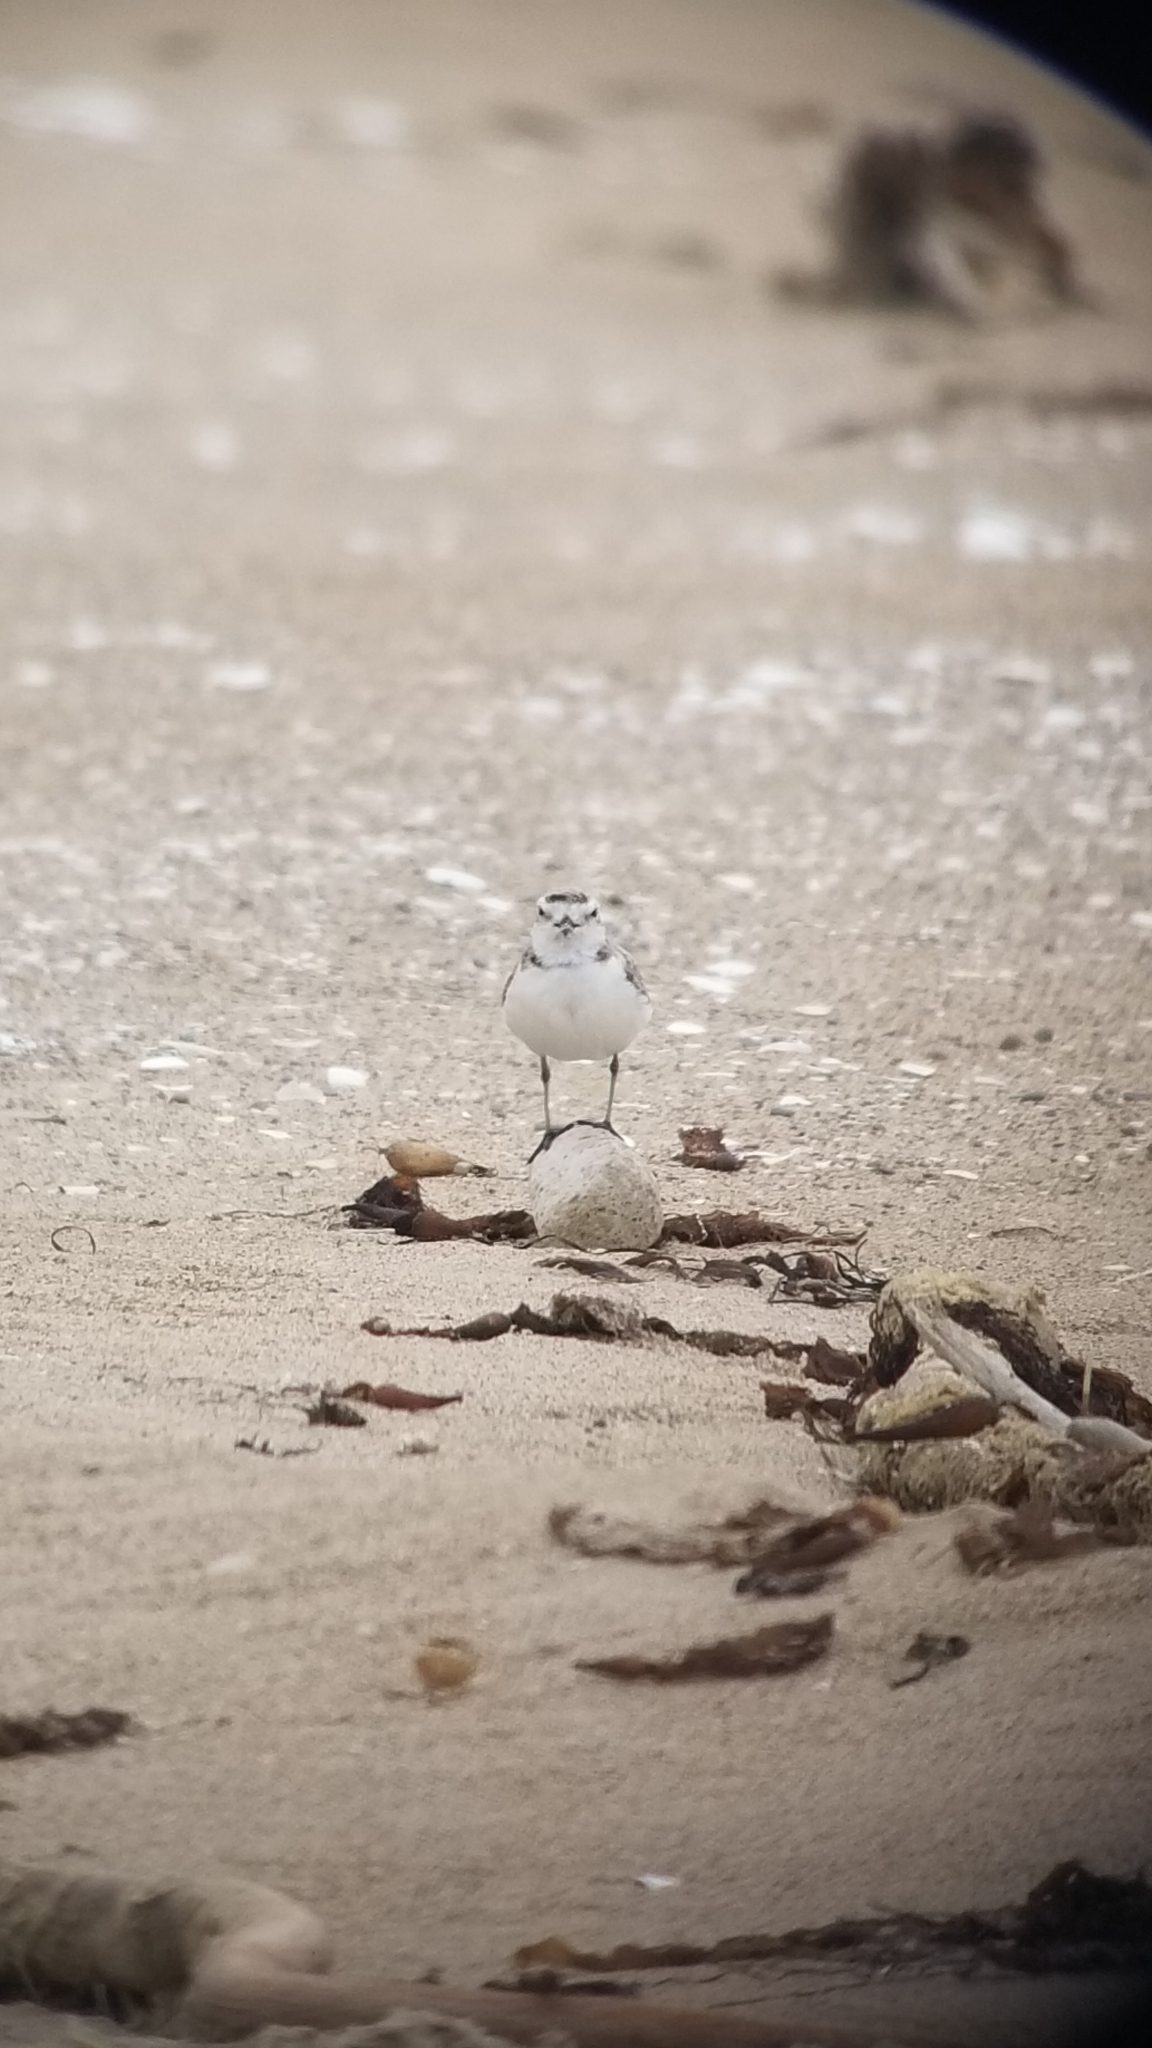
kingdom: Animalia
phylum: Chordata
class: Aves
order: Charadriiformes
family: Charadriidae
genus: Anarhynchus
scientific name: Anarhynchus
